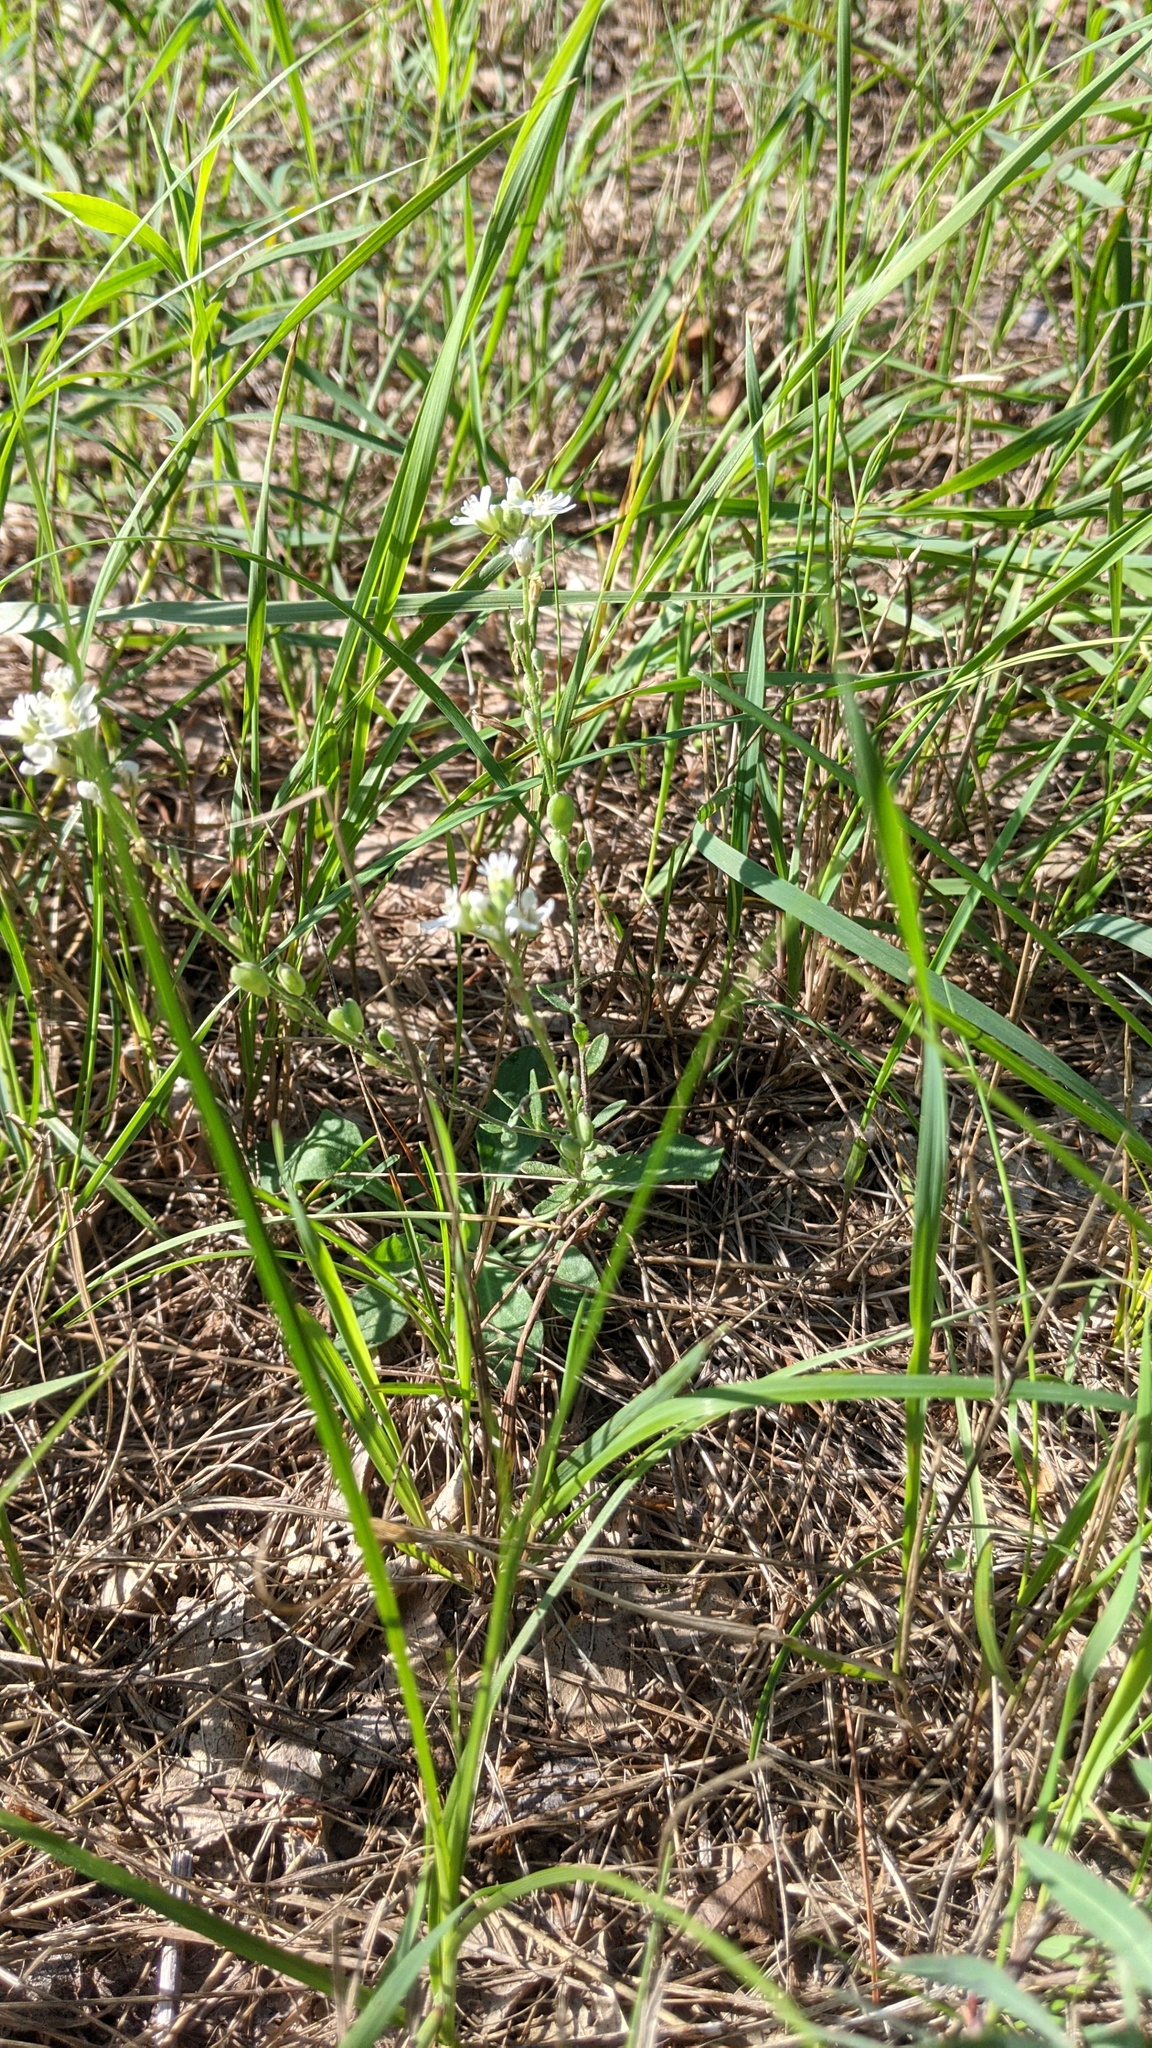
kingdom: Plantae
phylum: Tracheophyta
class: Magnoliopsida
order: Brassicales
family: Brassicaceae
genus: Berteroa
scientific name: Berteroa incana
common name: Hoary alison
